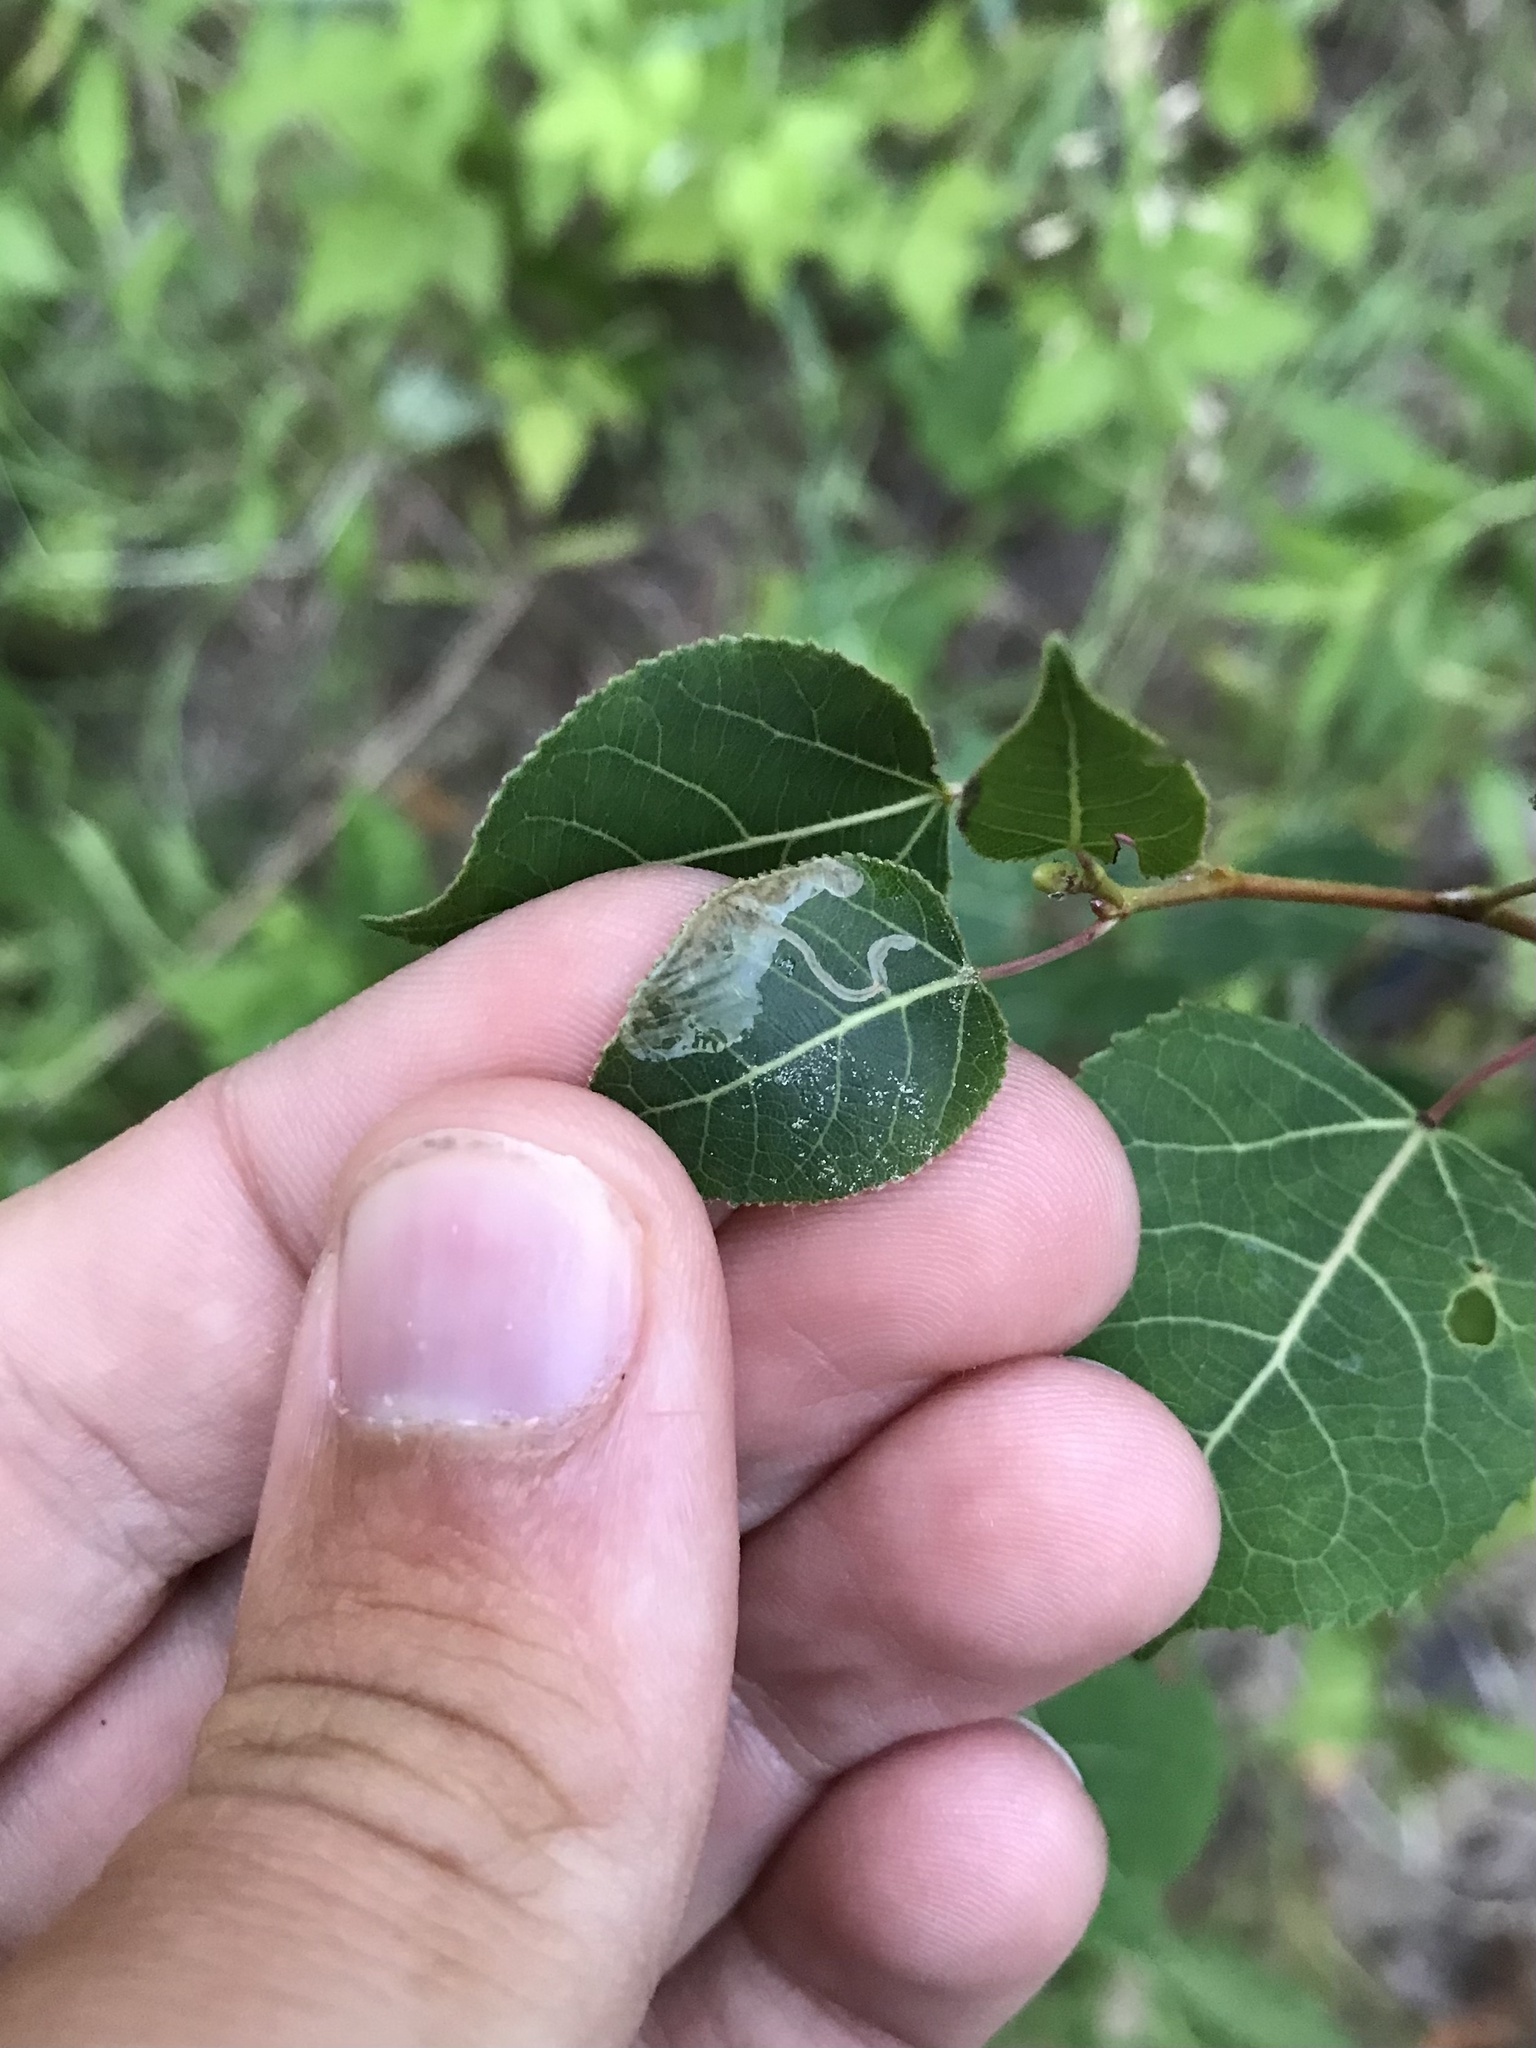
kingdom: Animalia
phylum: Arthropoda
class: Insecta
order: Lepidoptera
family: Gracillariidae
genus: Caloptilia
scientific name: Caloptilia stigmatella
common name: White-triangle slender
